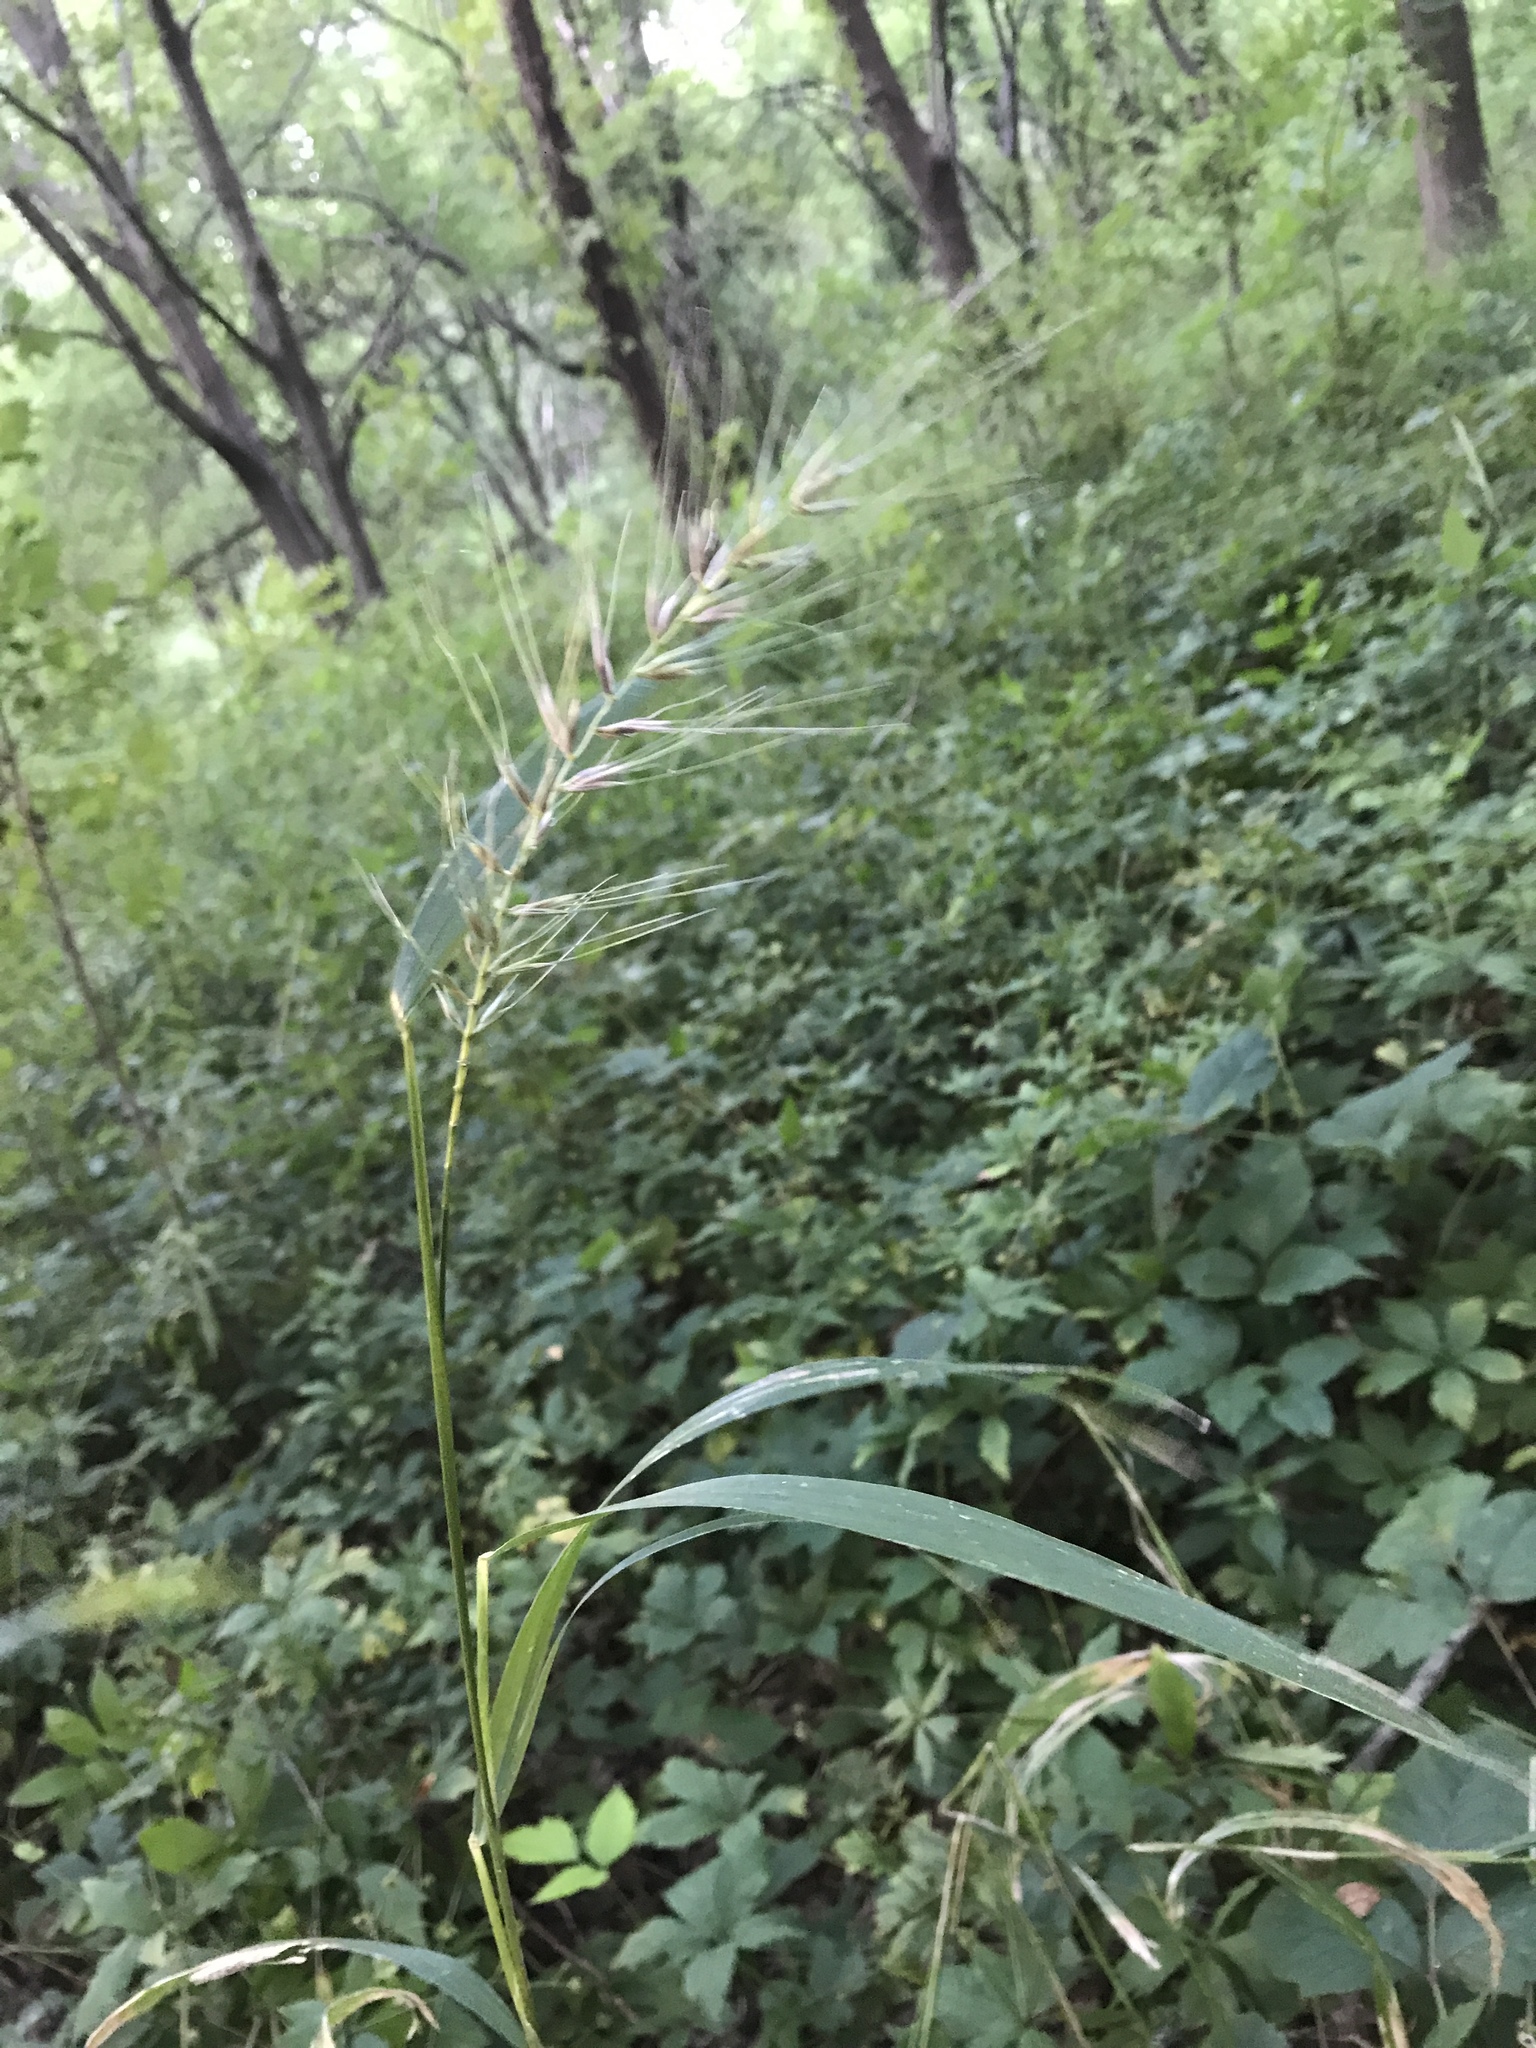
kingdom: Plantae
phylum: Tracheophyta
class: Liliopsida
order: Poales
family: Poaceae
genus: Elymus
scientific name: Elymus hystrix
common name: Bottlebrush grass
